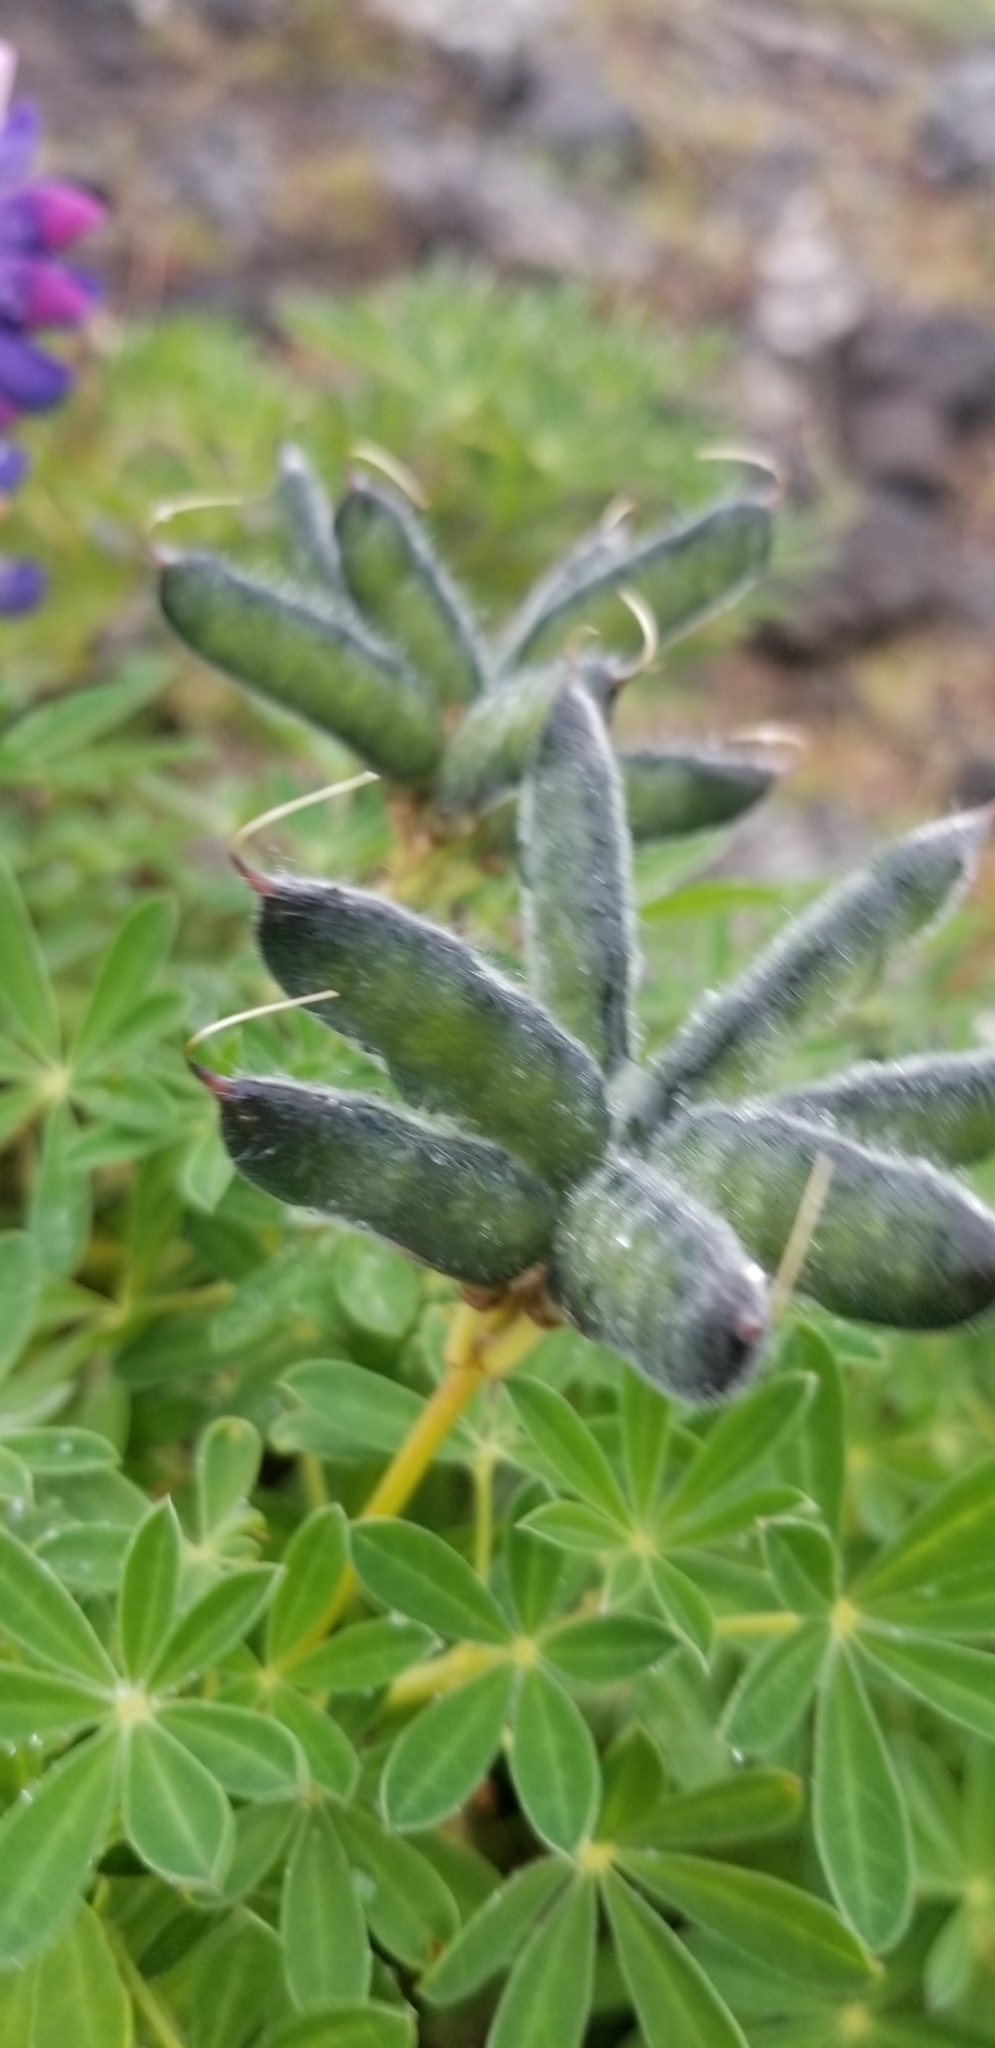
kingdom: Plantae
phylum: Tracheophyta
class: Magnoliopsida
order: Fabales
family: Fabaceae
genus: Lupinus
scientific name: Lupinus nootkatensis
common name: Nootka lupine
